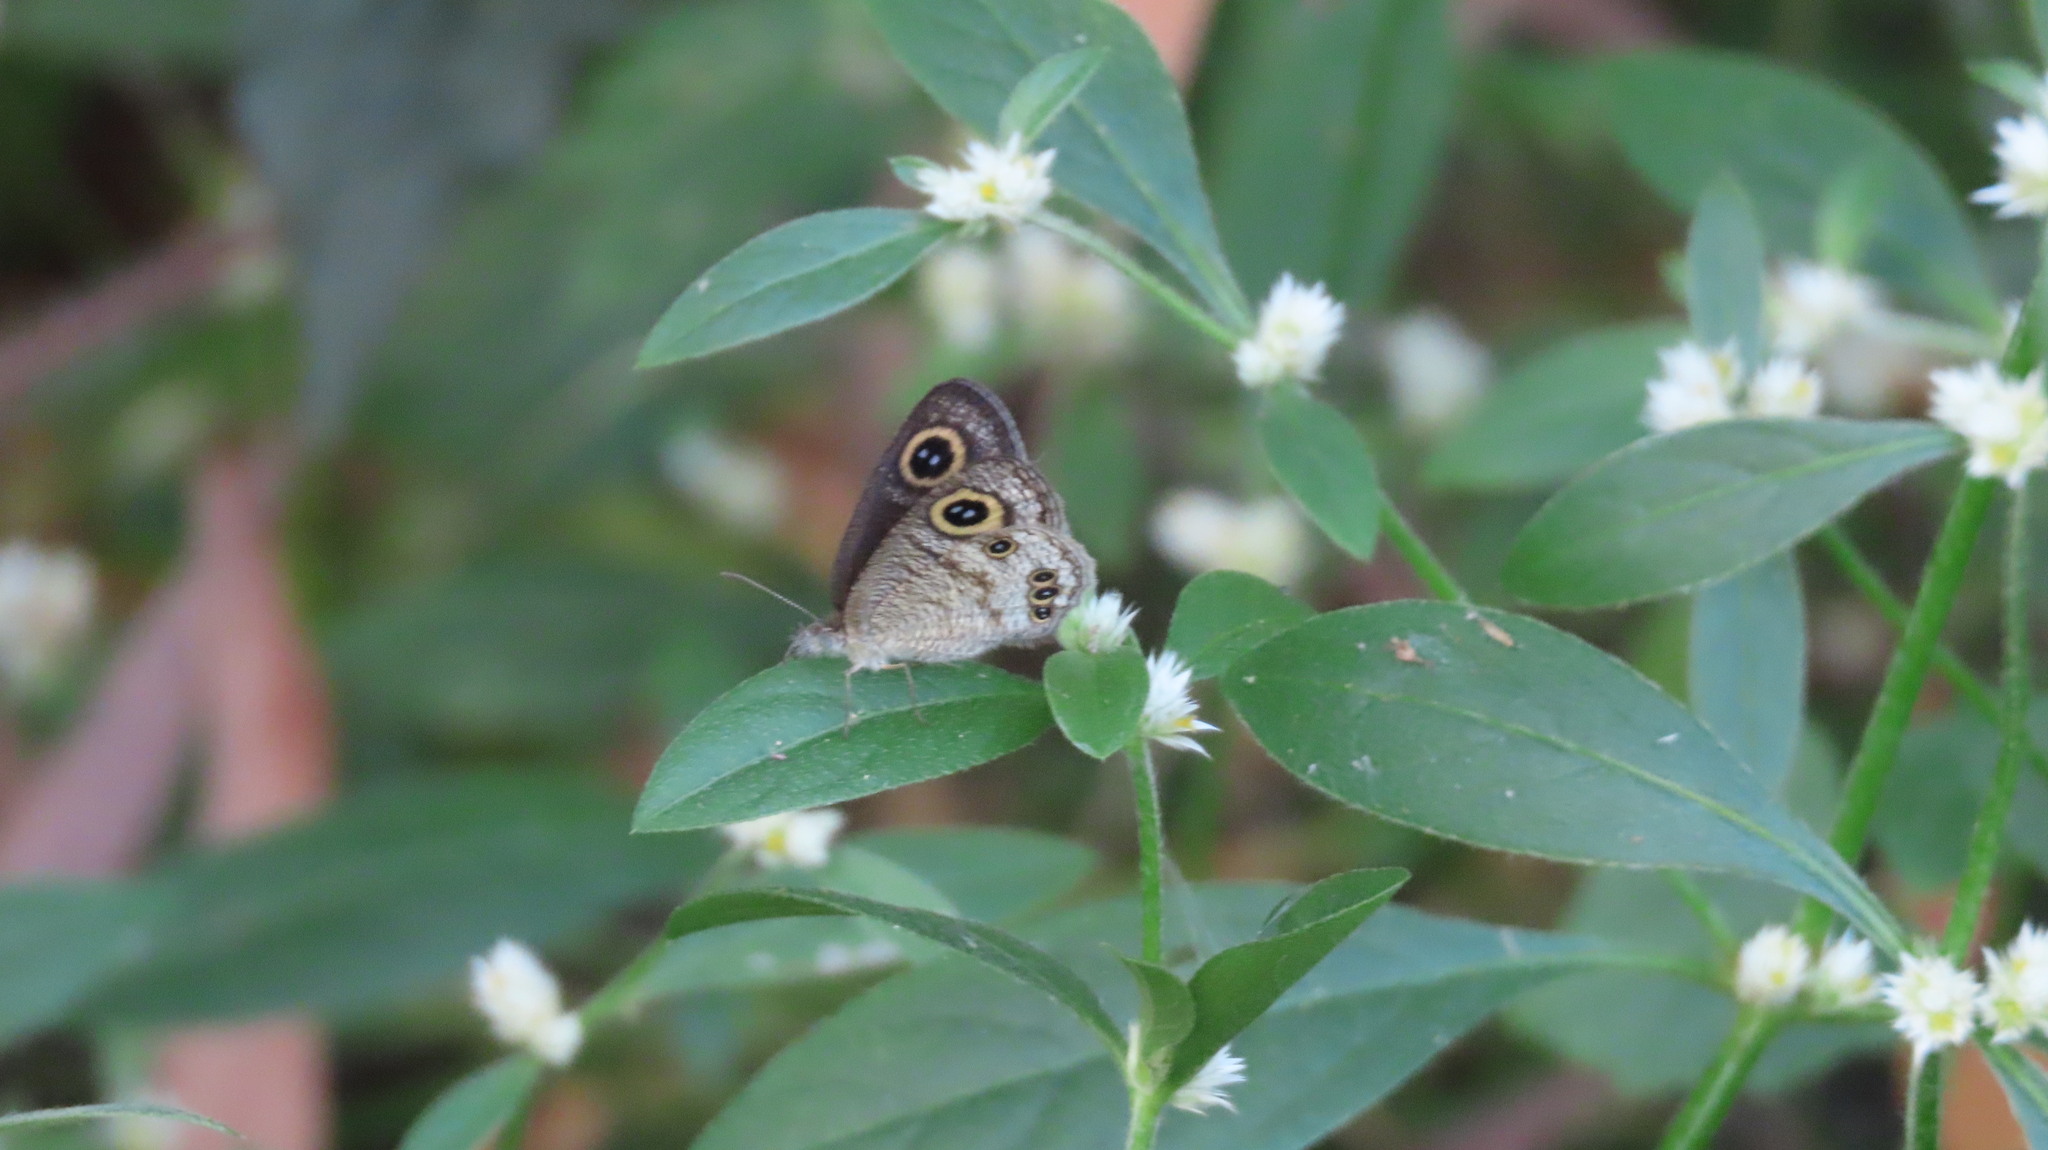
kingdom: Animalia
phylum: Arthropoda
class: Insecta
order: Lepidoptera
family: Nymphalidae
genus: Ypthima
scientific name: Ypthima huebneri
